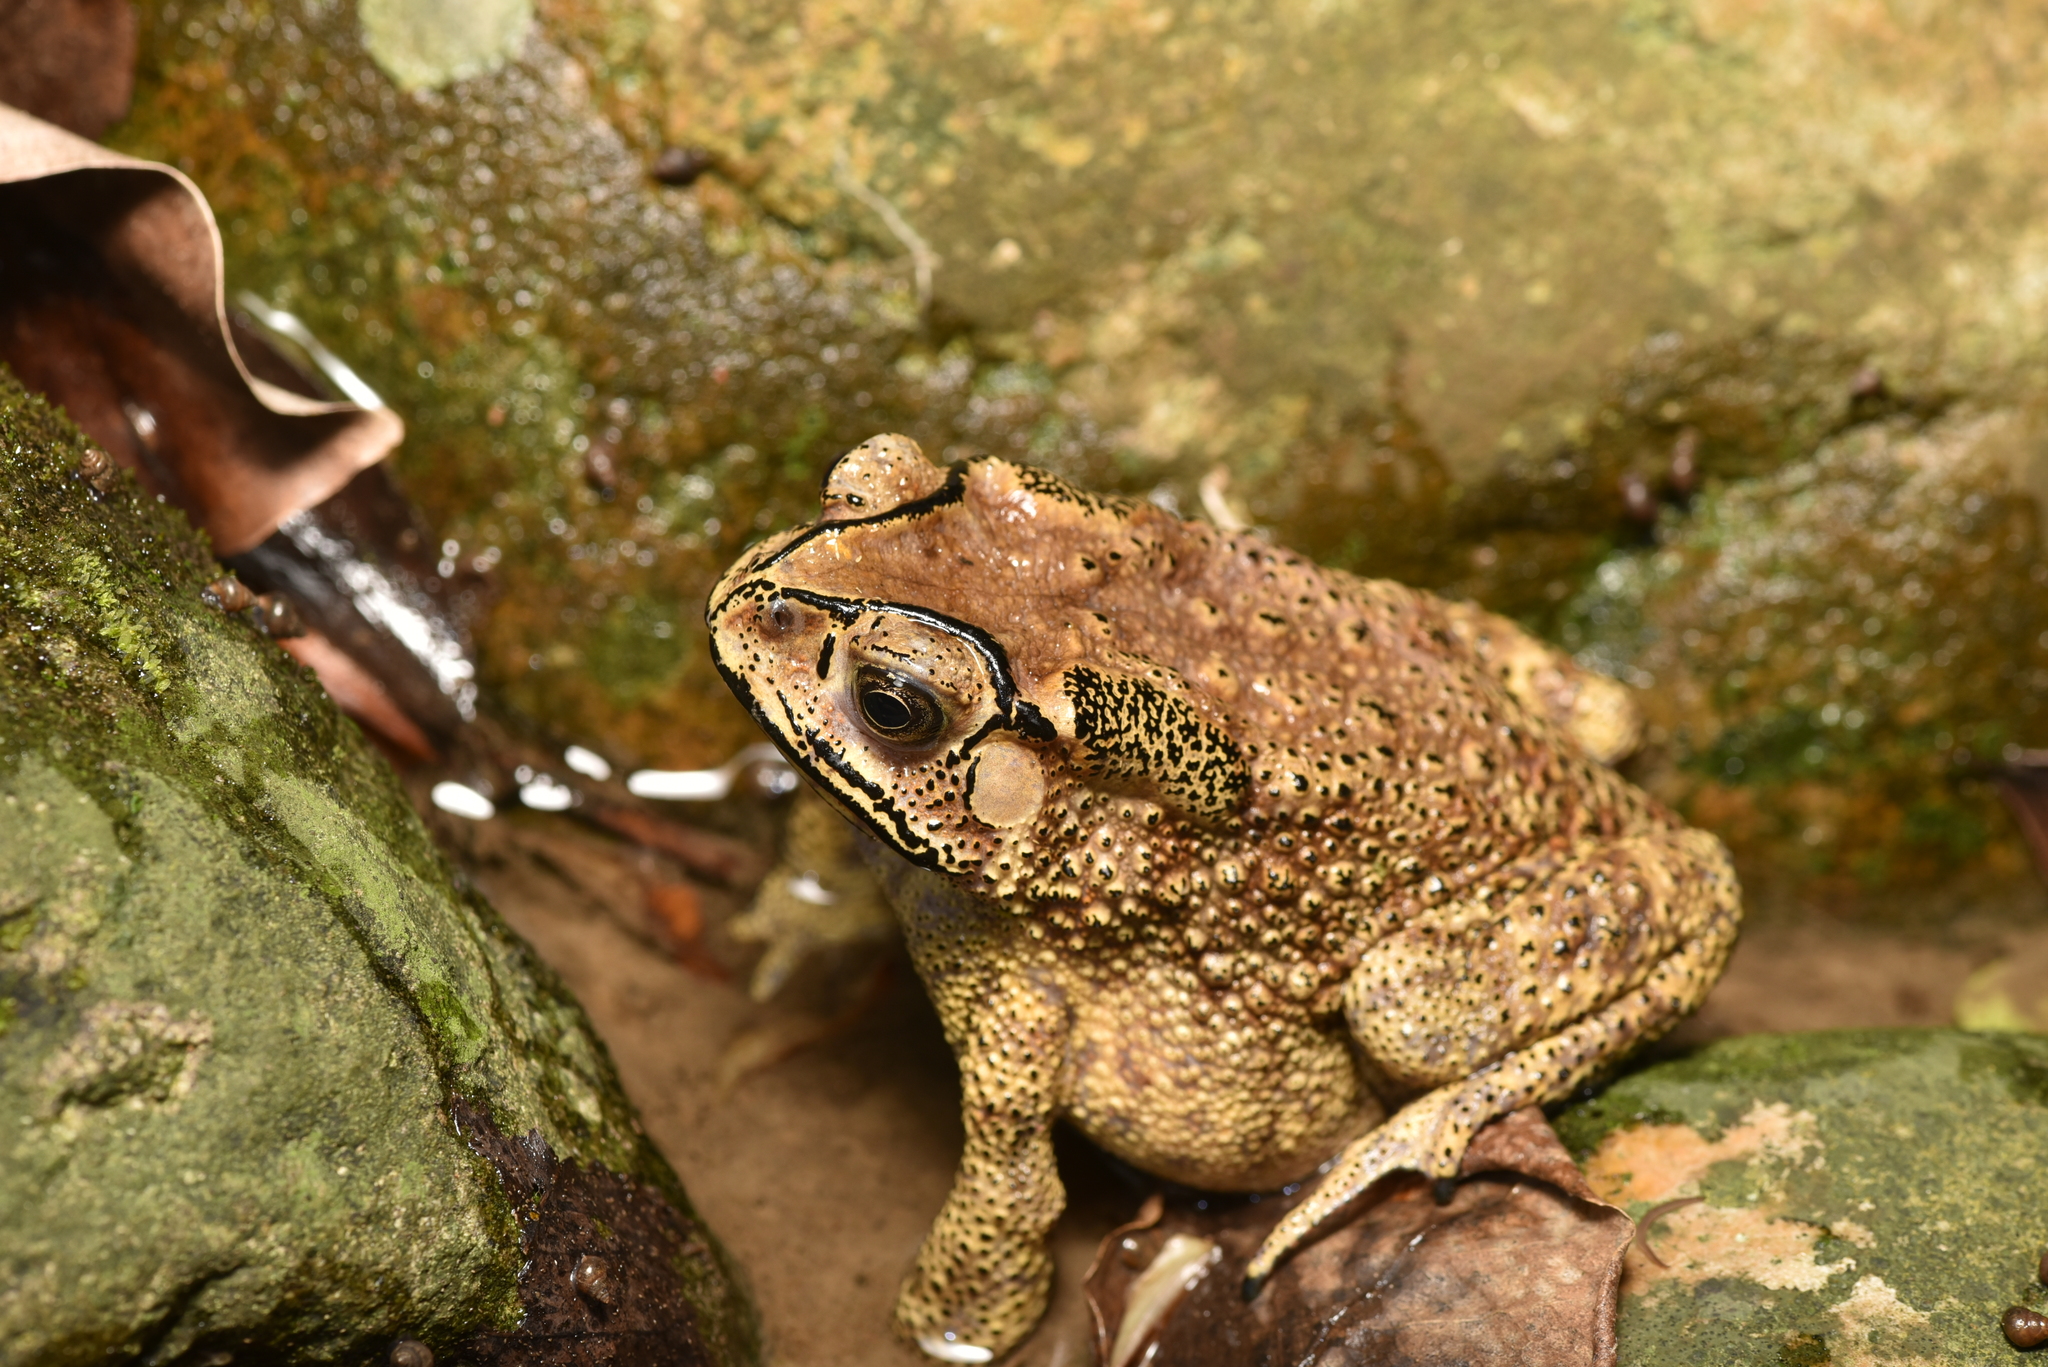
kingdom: Animalia
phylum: Chordata
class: Amphibia
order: Anura
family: Bufonidae
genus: Duttaphrynus
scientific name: Duttaphrynus melanostictus
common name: Common sunda toad
